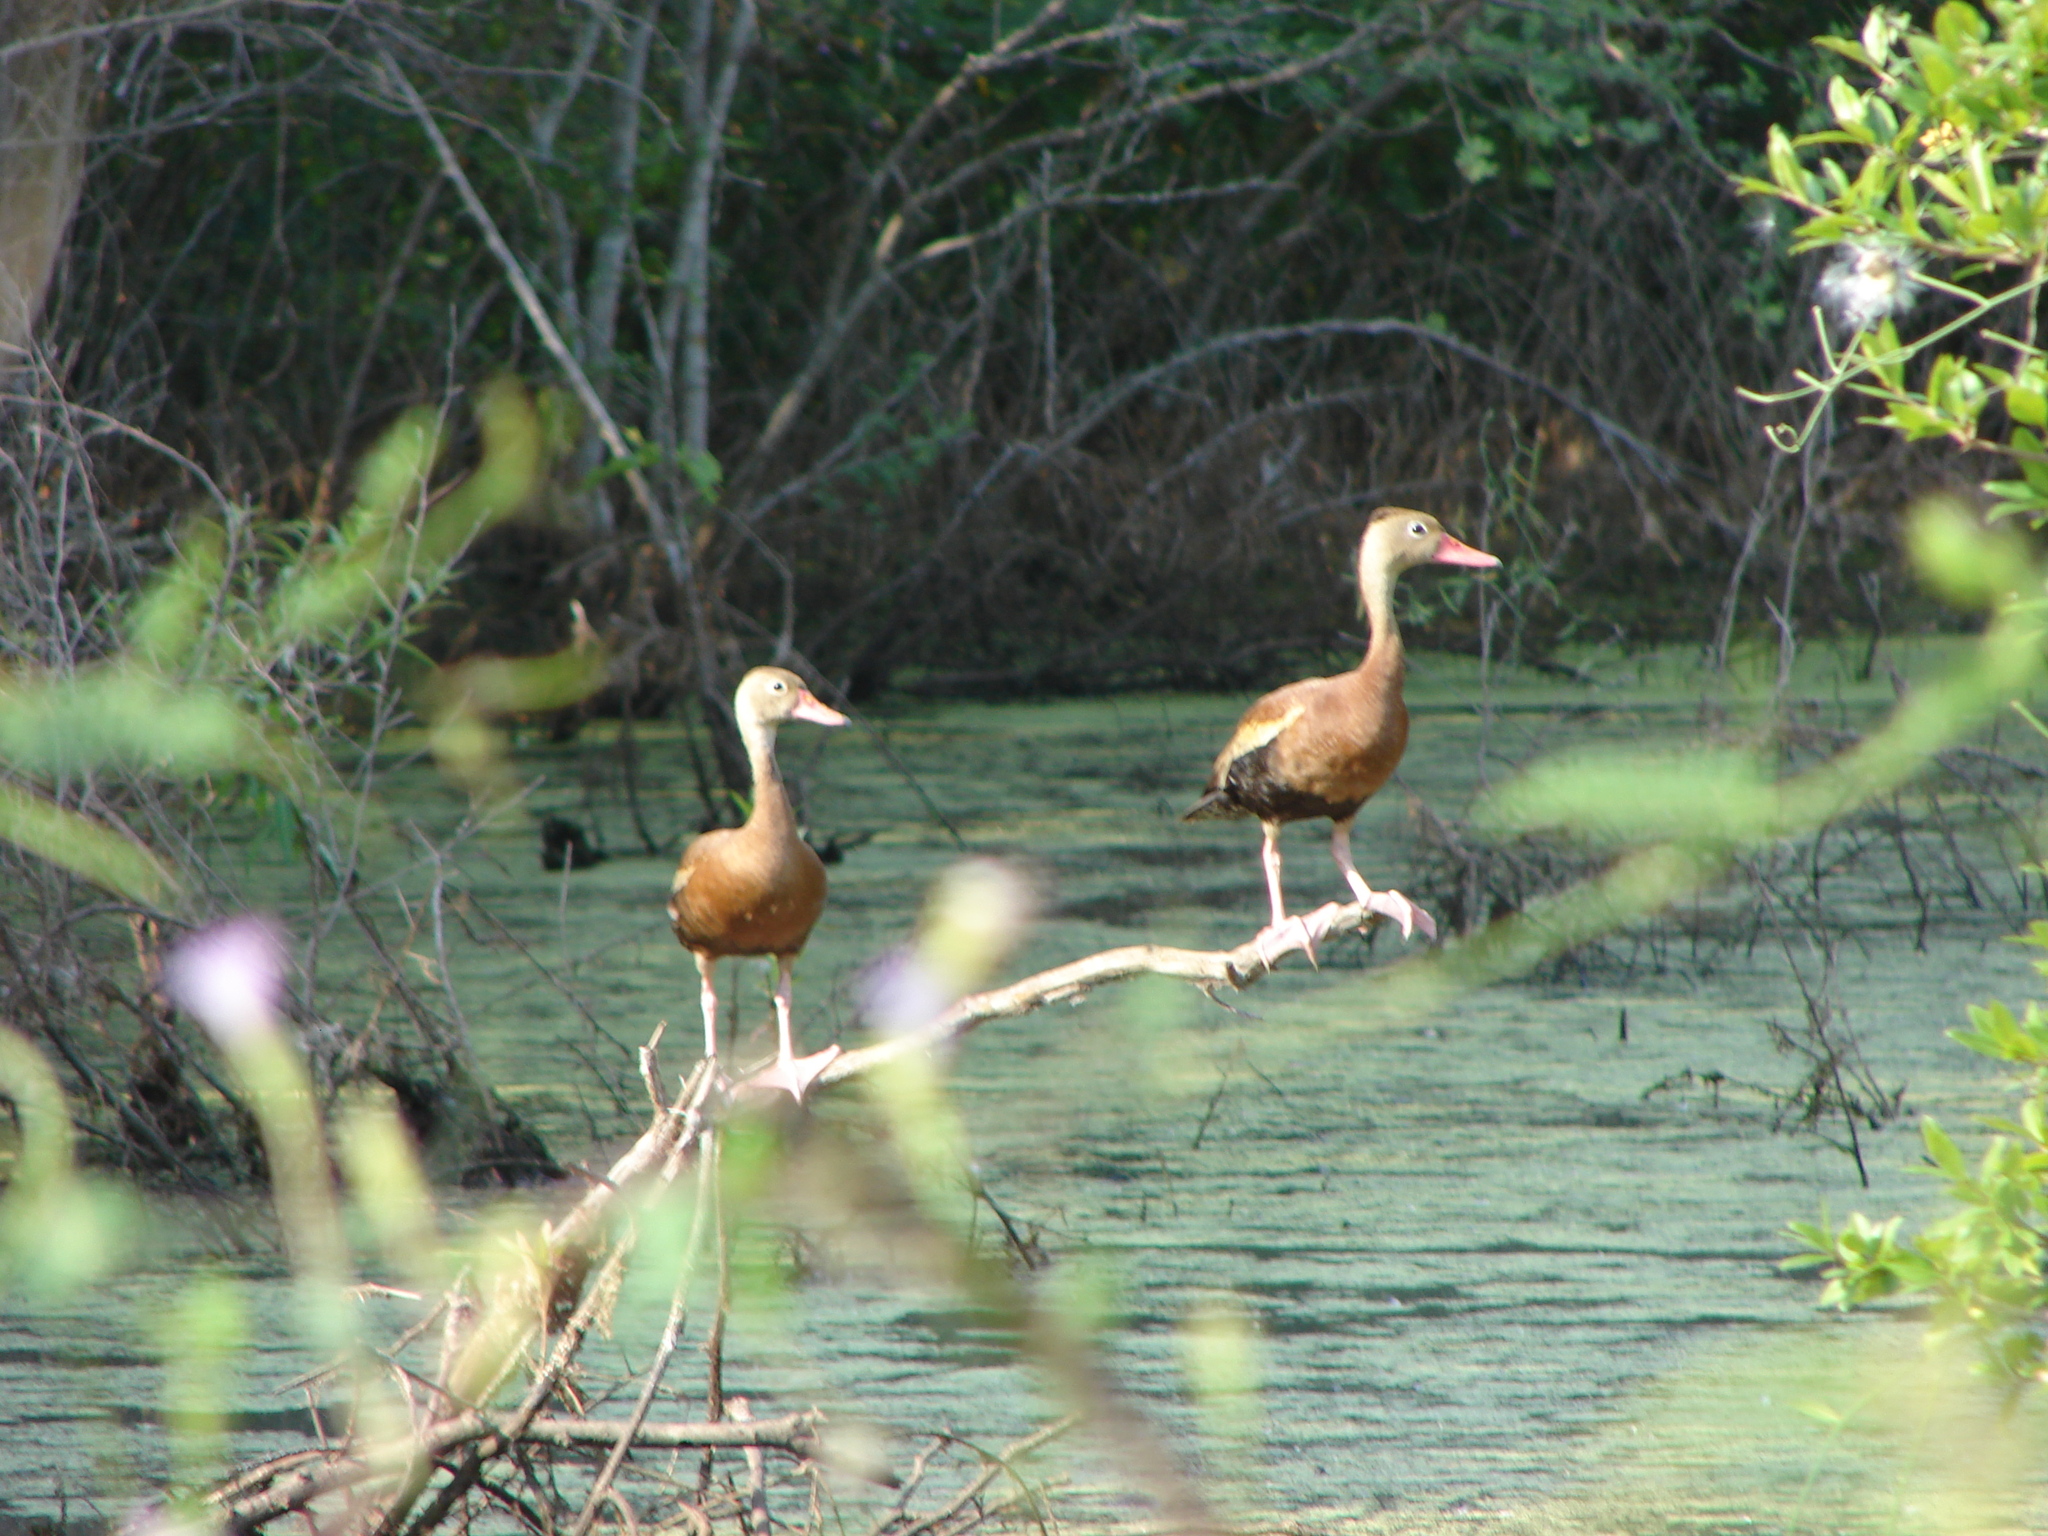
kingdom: Animalia
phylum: Chordata
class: Aves
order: Anseriformes
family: Anatidae
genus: Dendrocygna
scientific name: Dendrocygna autumnalis
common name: Black-bellied whistling duck
